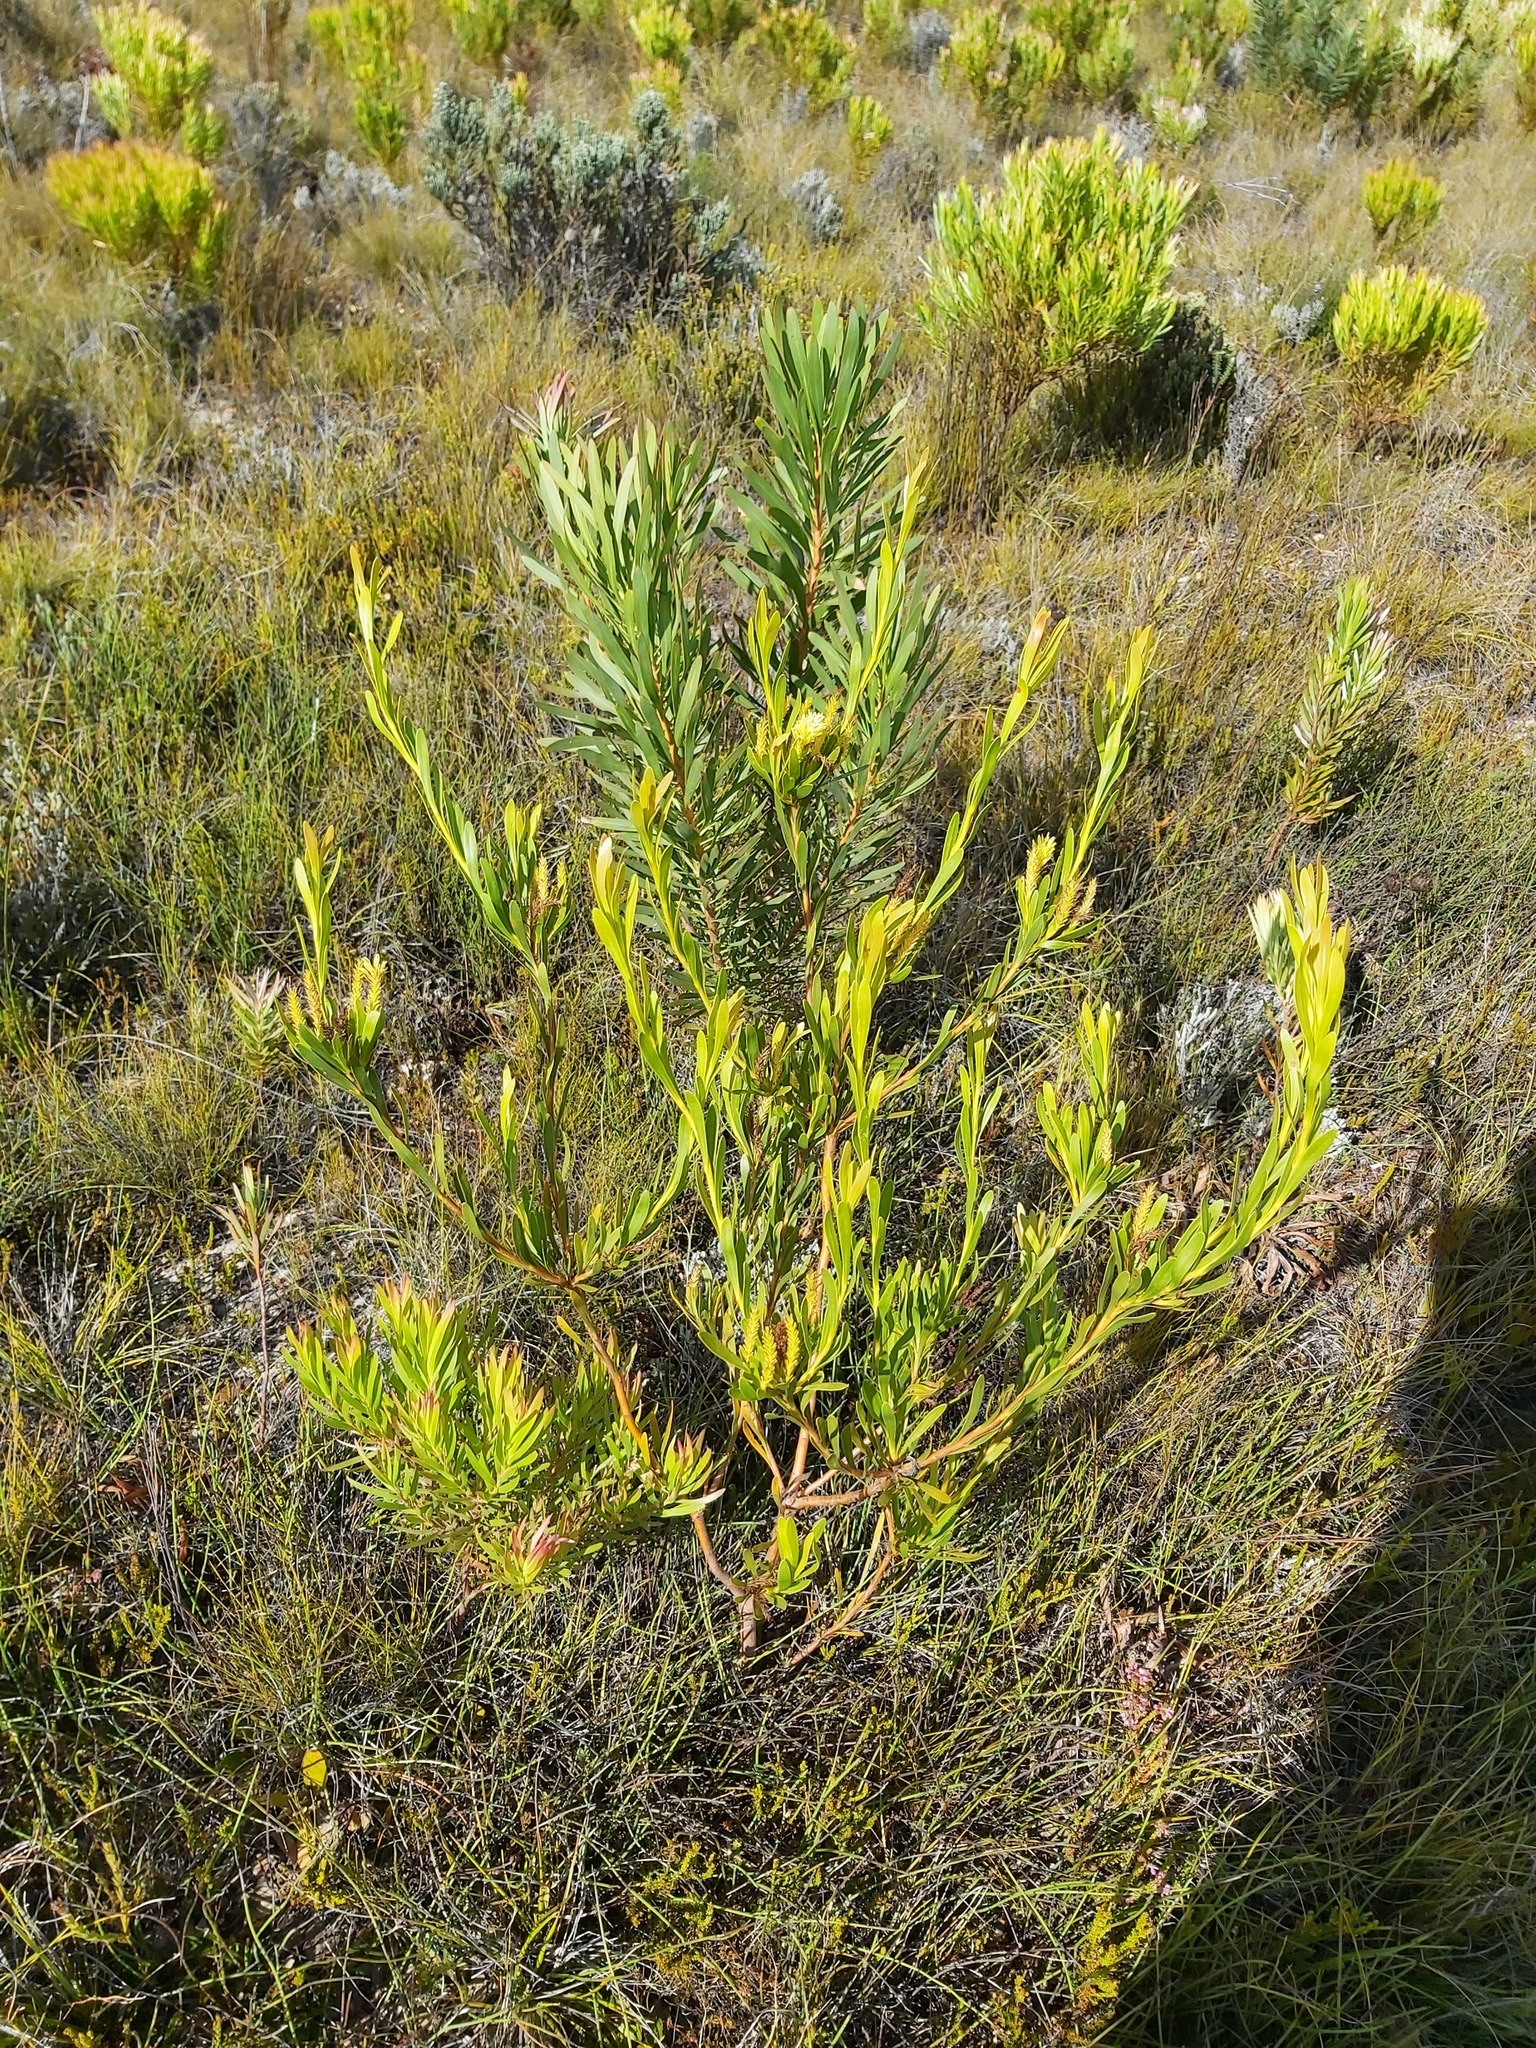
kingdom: Plantae
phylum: Tracheophyta
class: Magnoliopsida
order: Proteales
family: Proteaceae
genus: Aulax
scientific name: Aulax umbellata
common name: Broad-leaf featherbush
